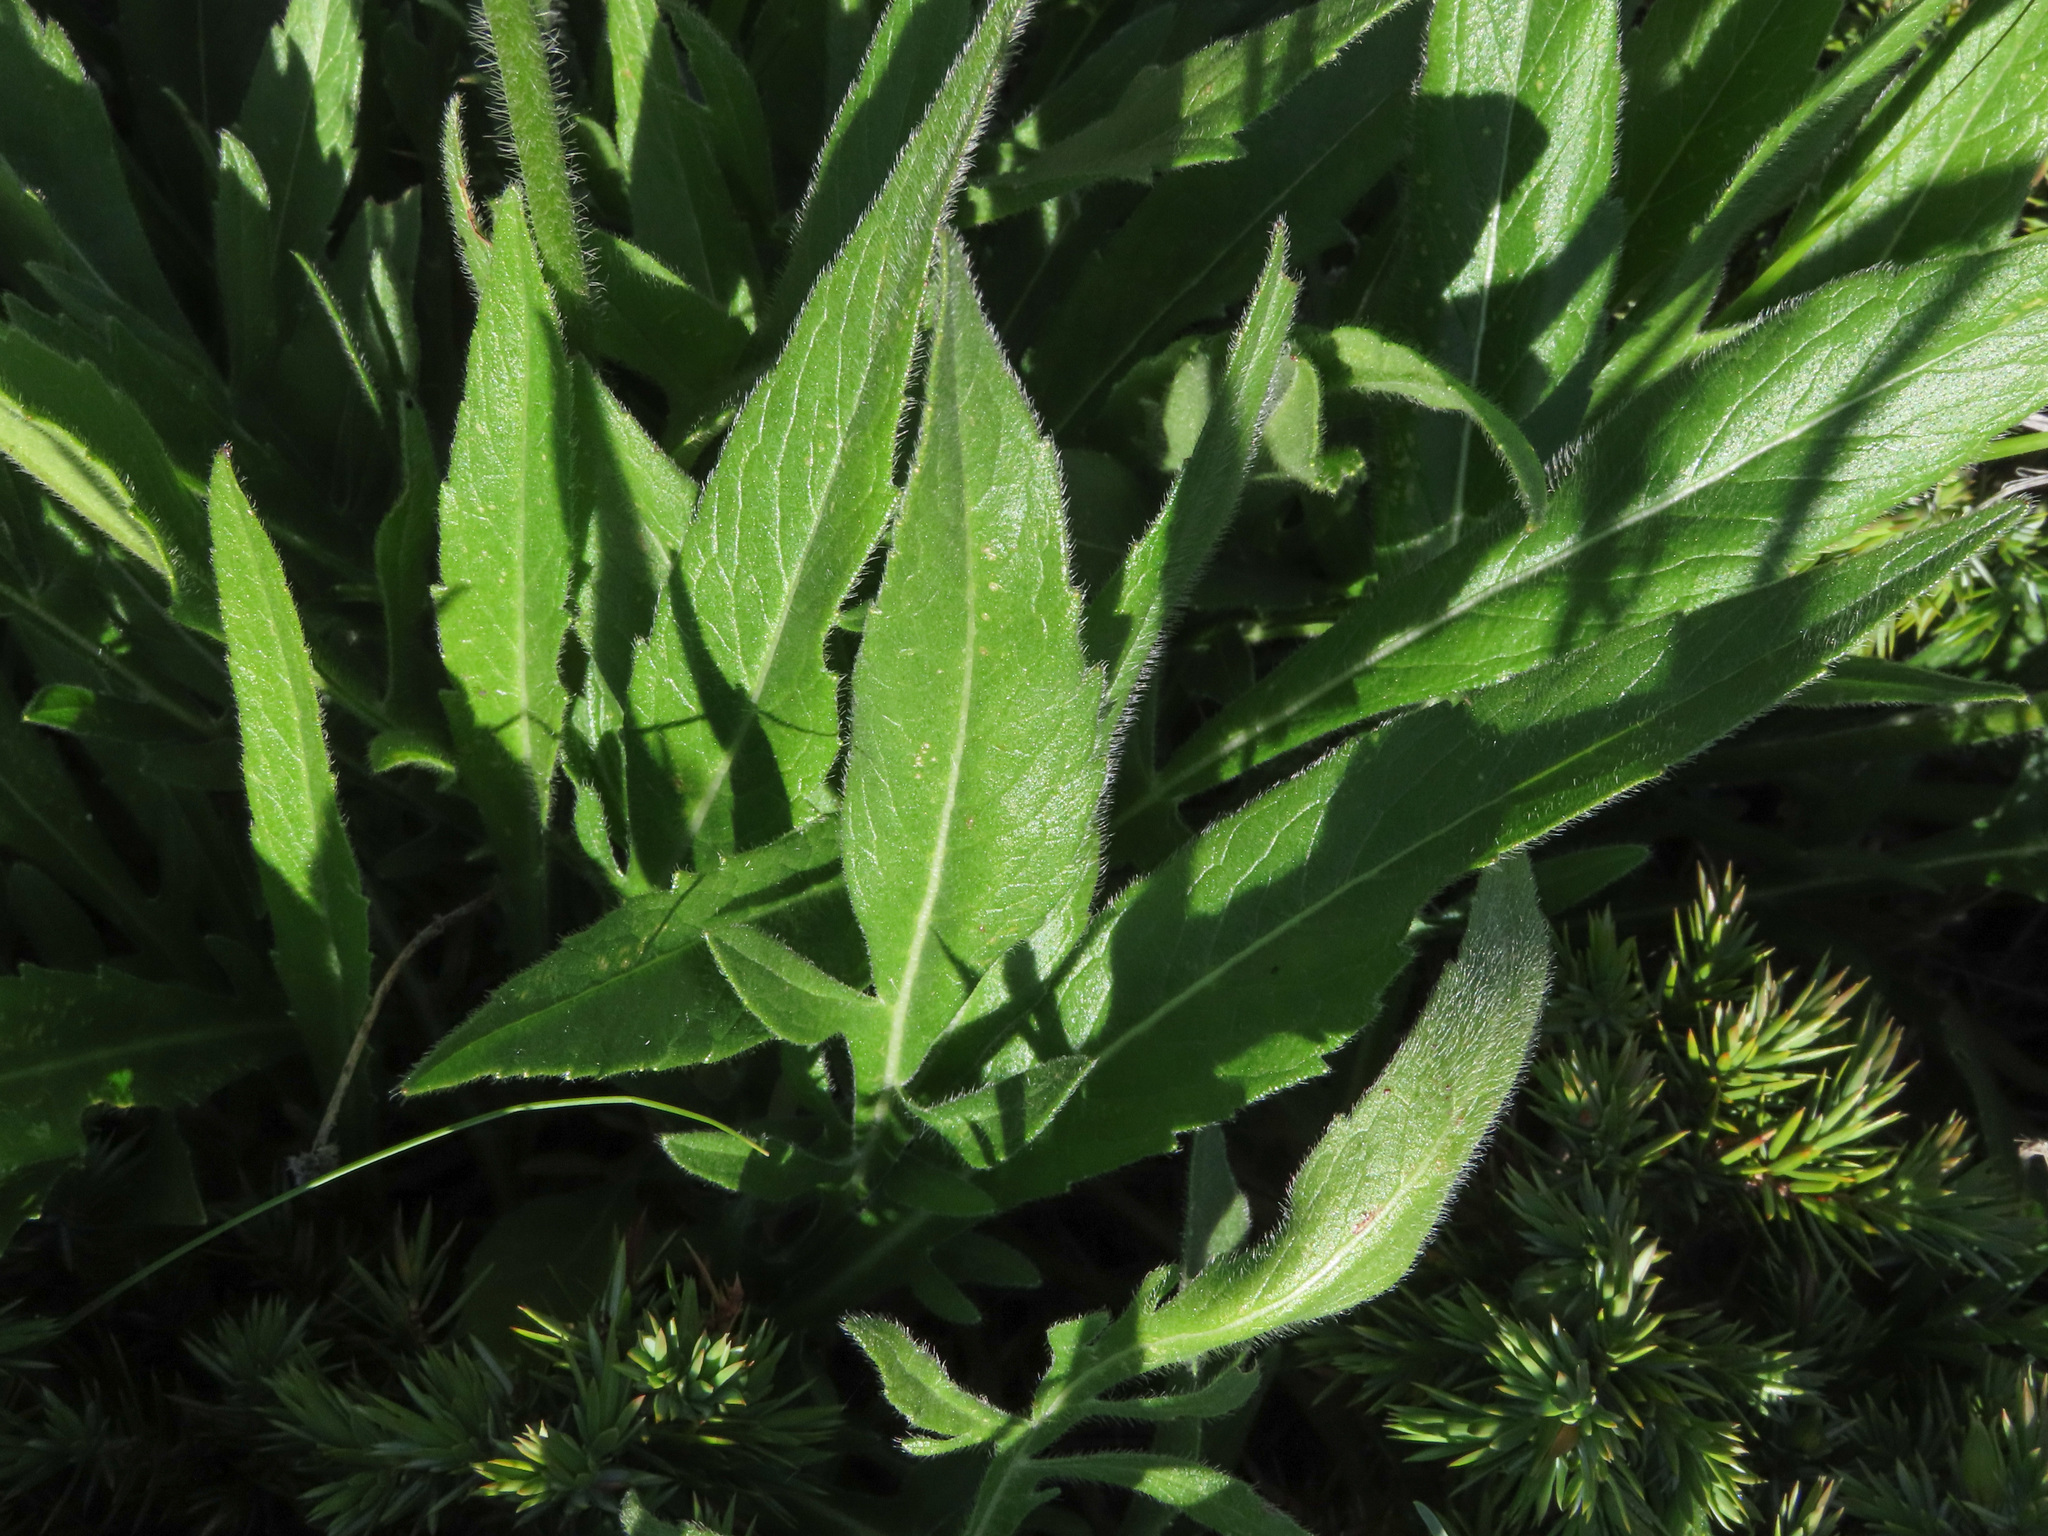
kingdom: Plantae
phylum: Tracheophyta
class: Magnoliopsida
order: Dipsacales
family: Caprifoliaceae
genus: Knautia
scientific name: Knautia dinarica
